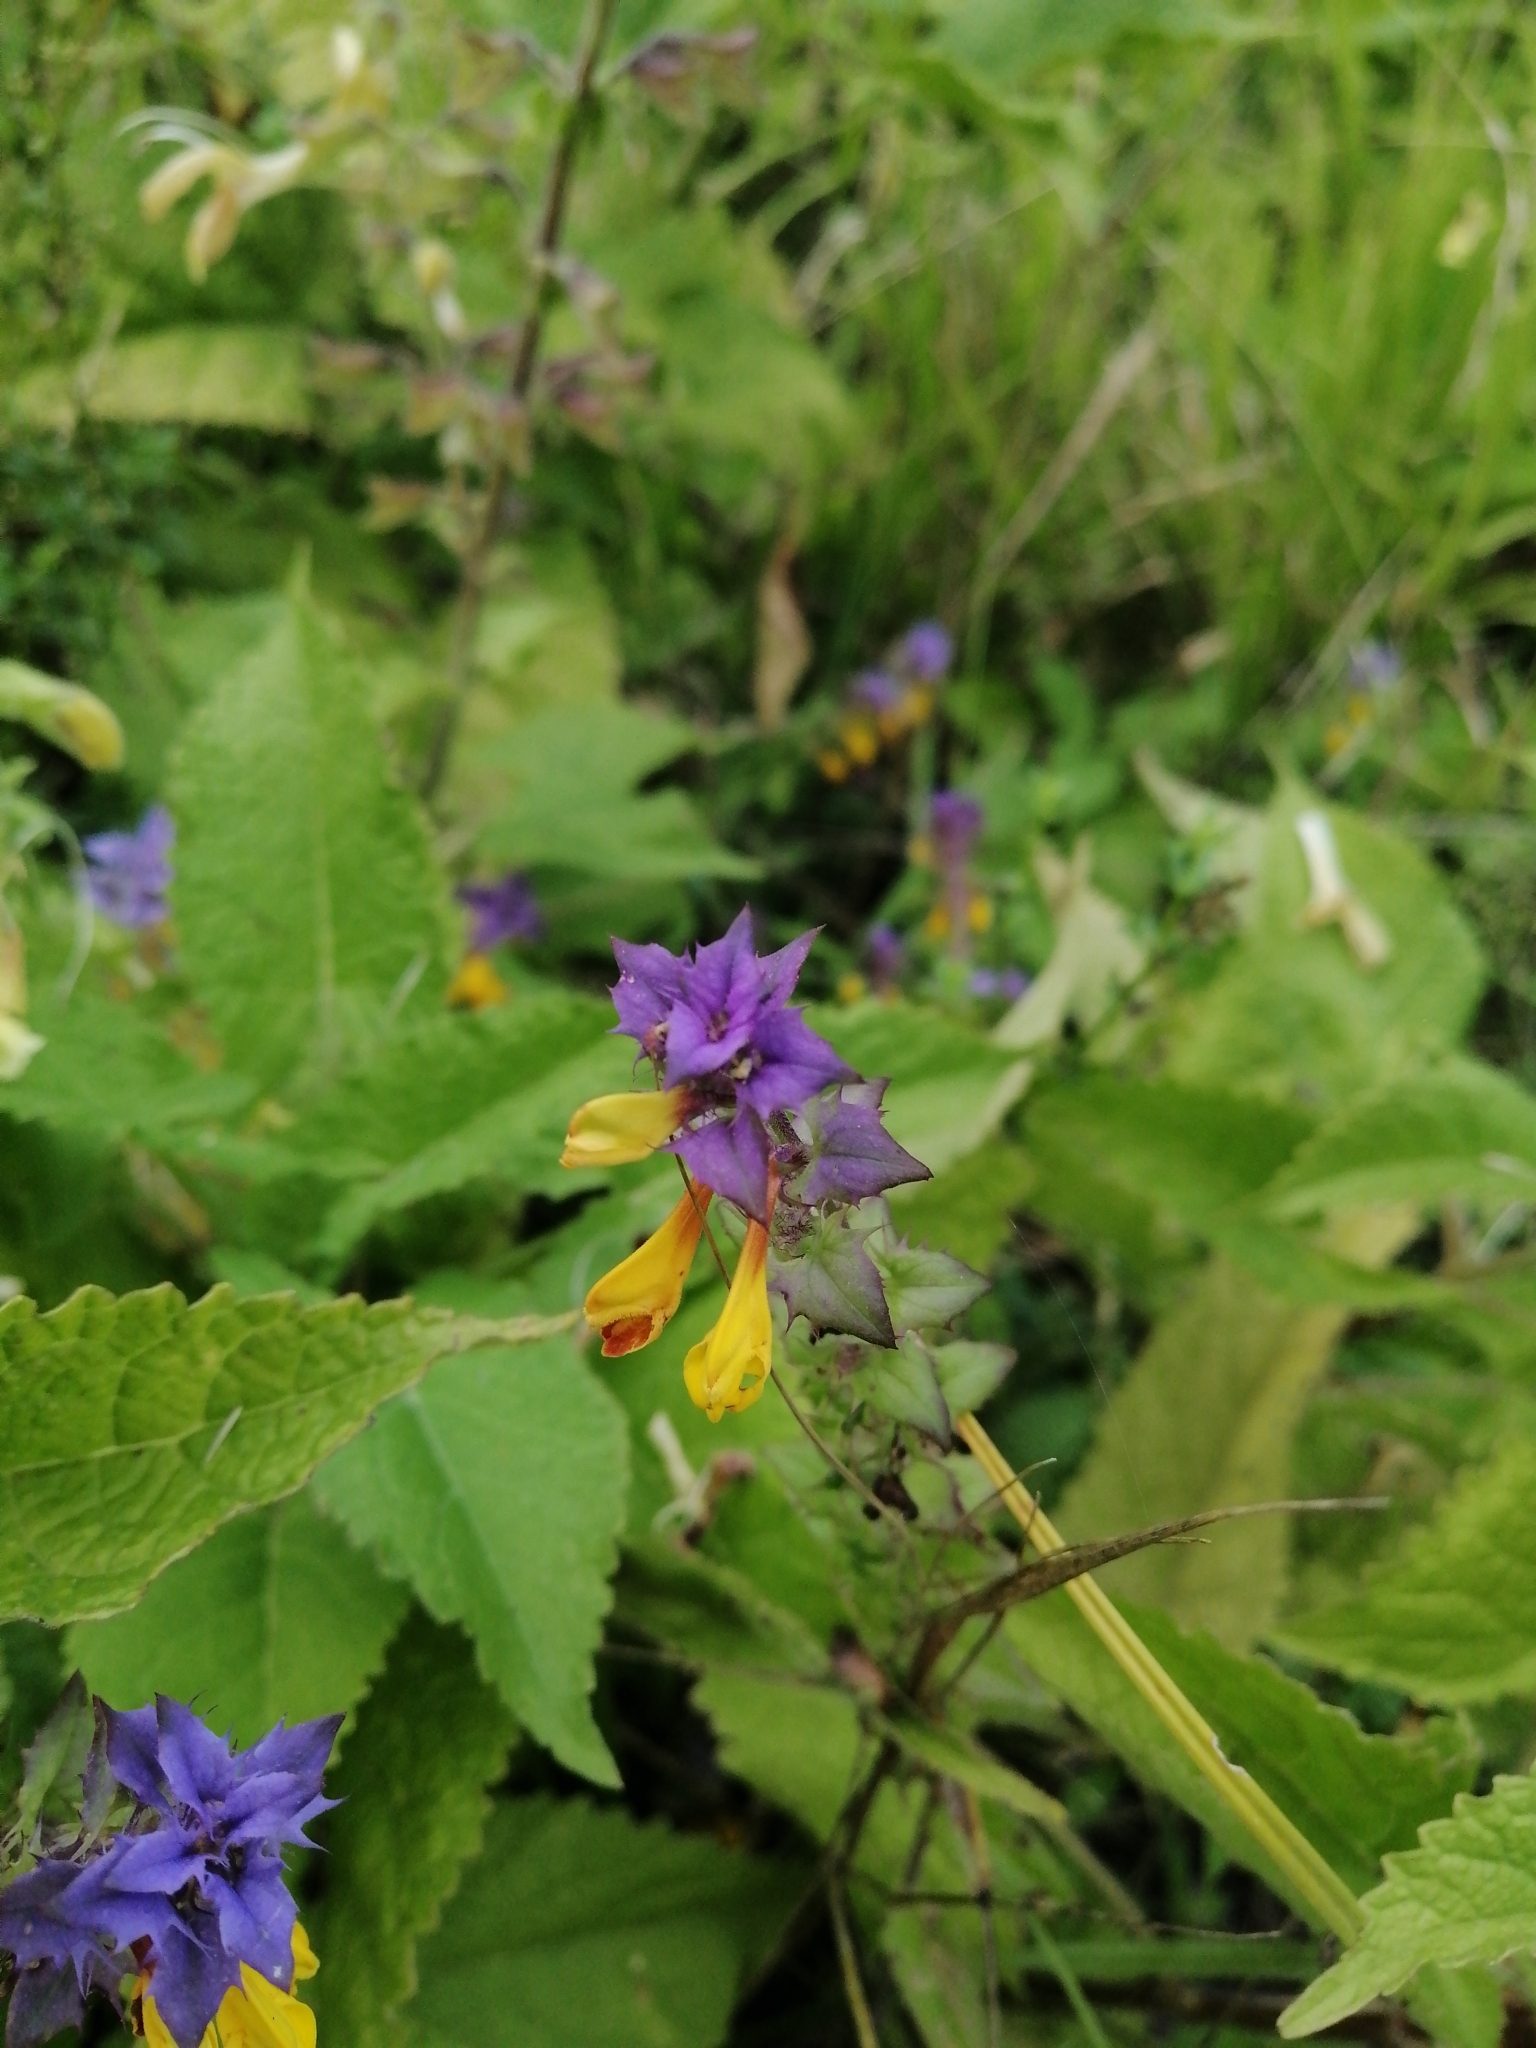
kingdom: Plantae
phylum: Tracheophyta
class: Magnoliopsida
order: Lamiales
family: Orobanchaceae
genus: Melampyrum
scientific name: Melampyrum nemorosum
